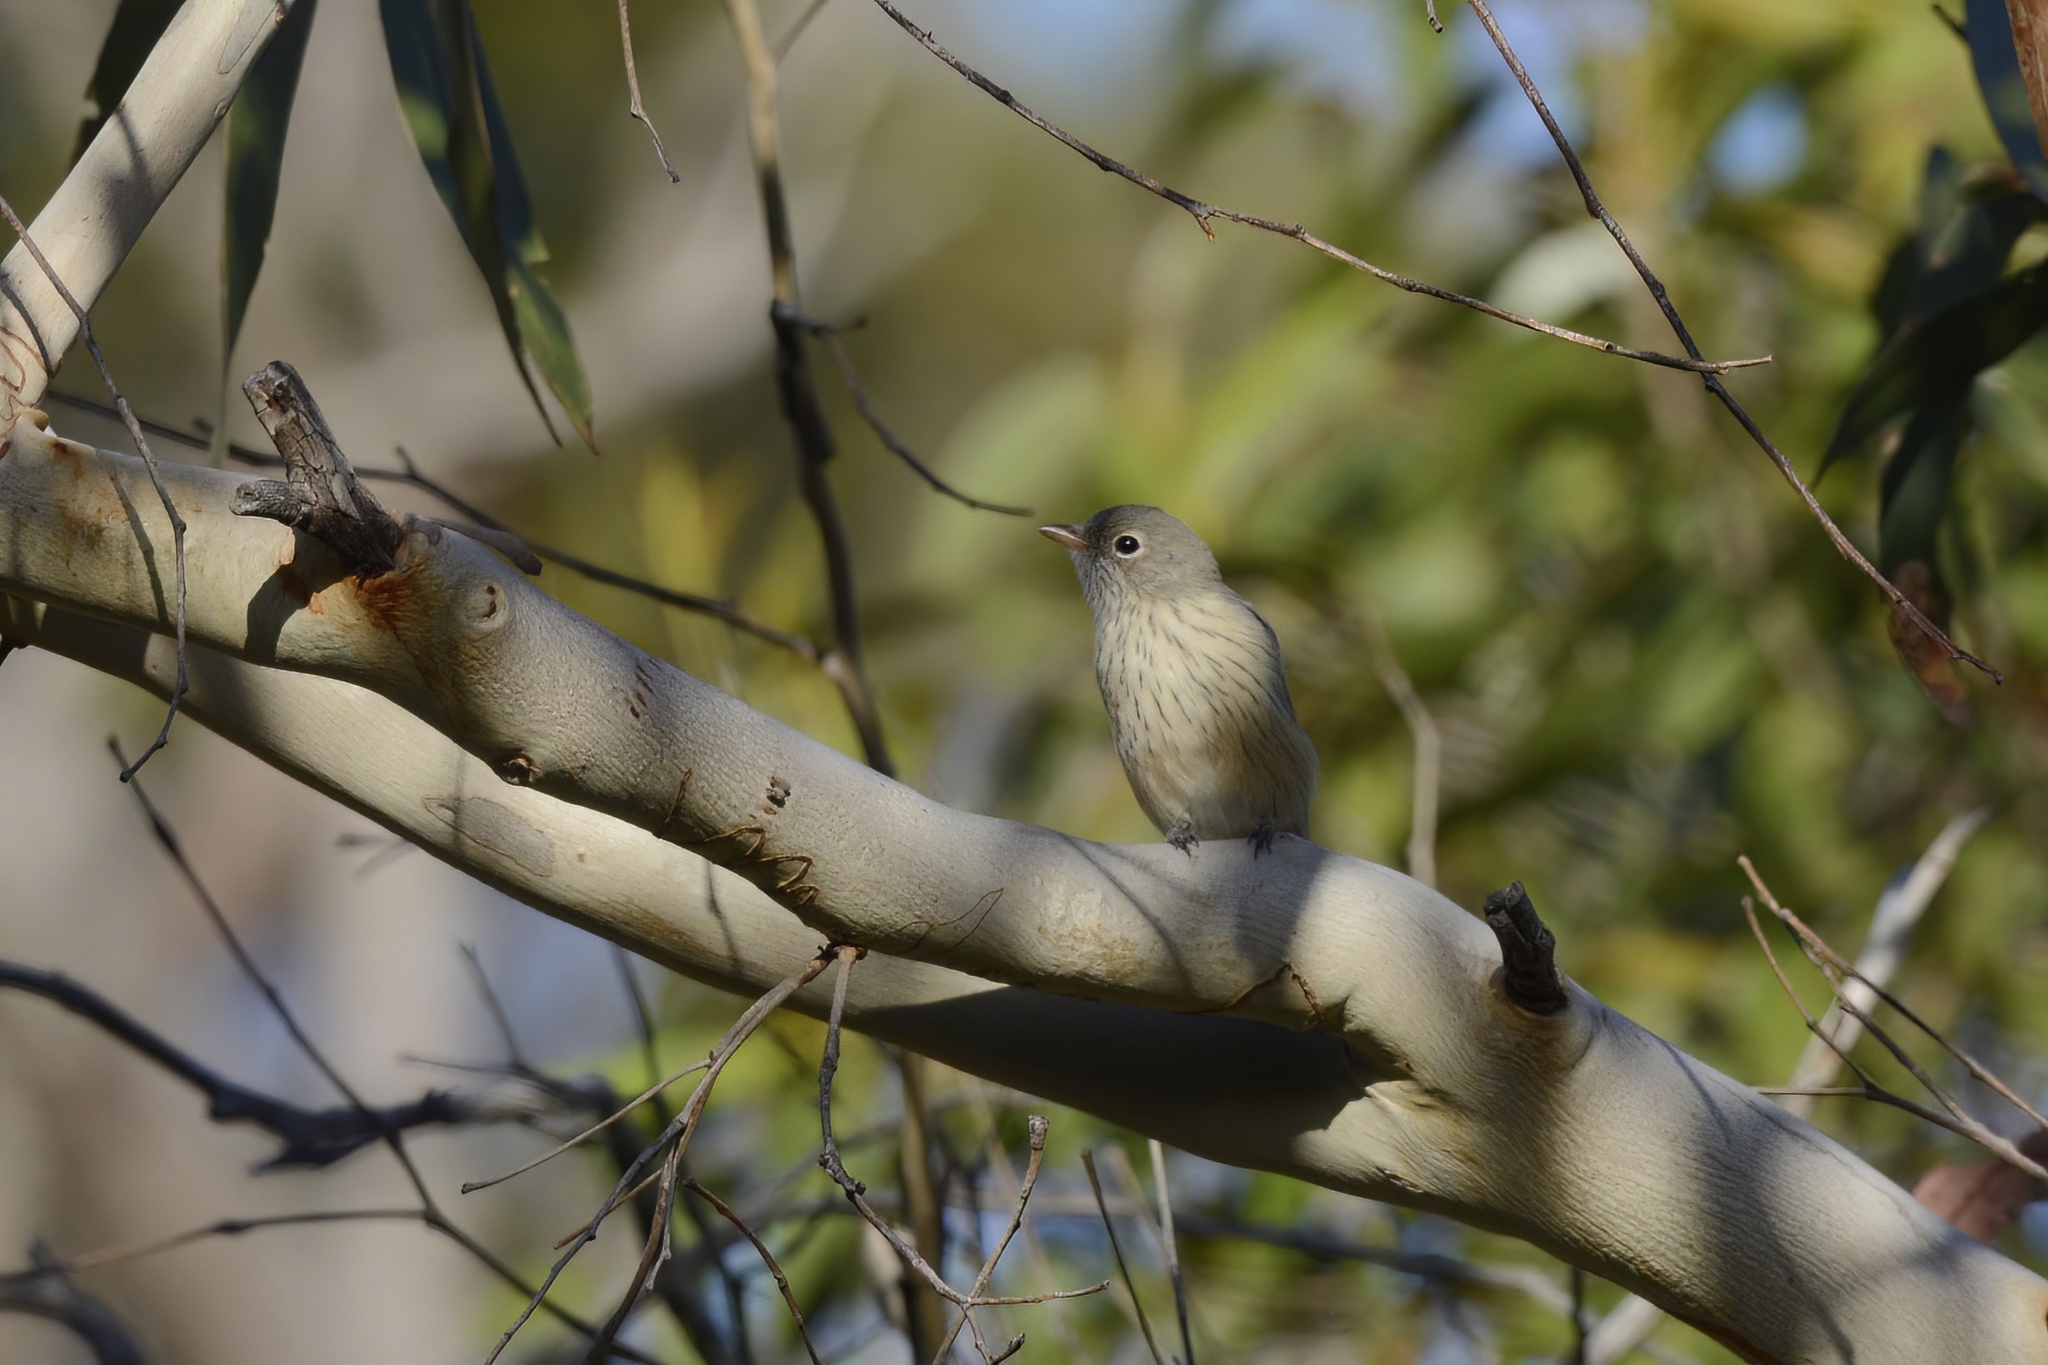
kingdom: Animalia
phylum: Chordata
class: Aves
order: Passeriformes
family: Pachycephalidae
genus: Pachycephala
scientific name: Pachycephala rufiventris
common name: Rufous whistler
